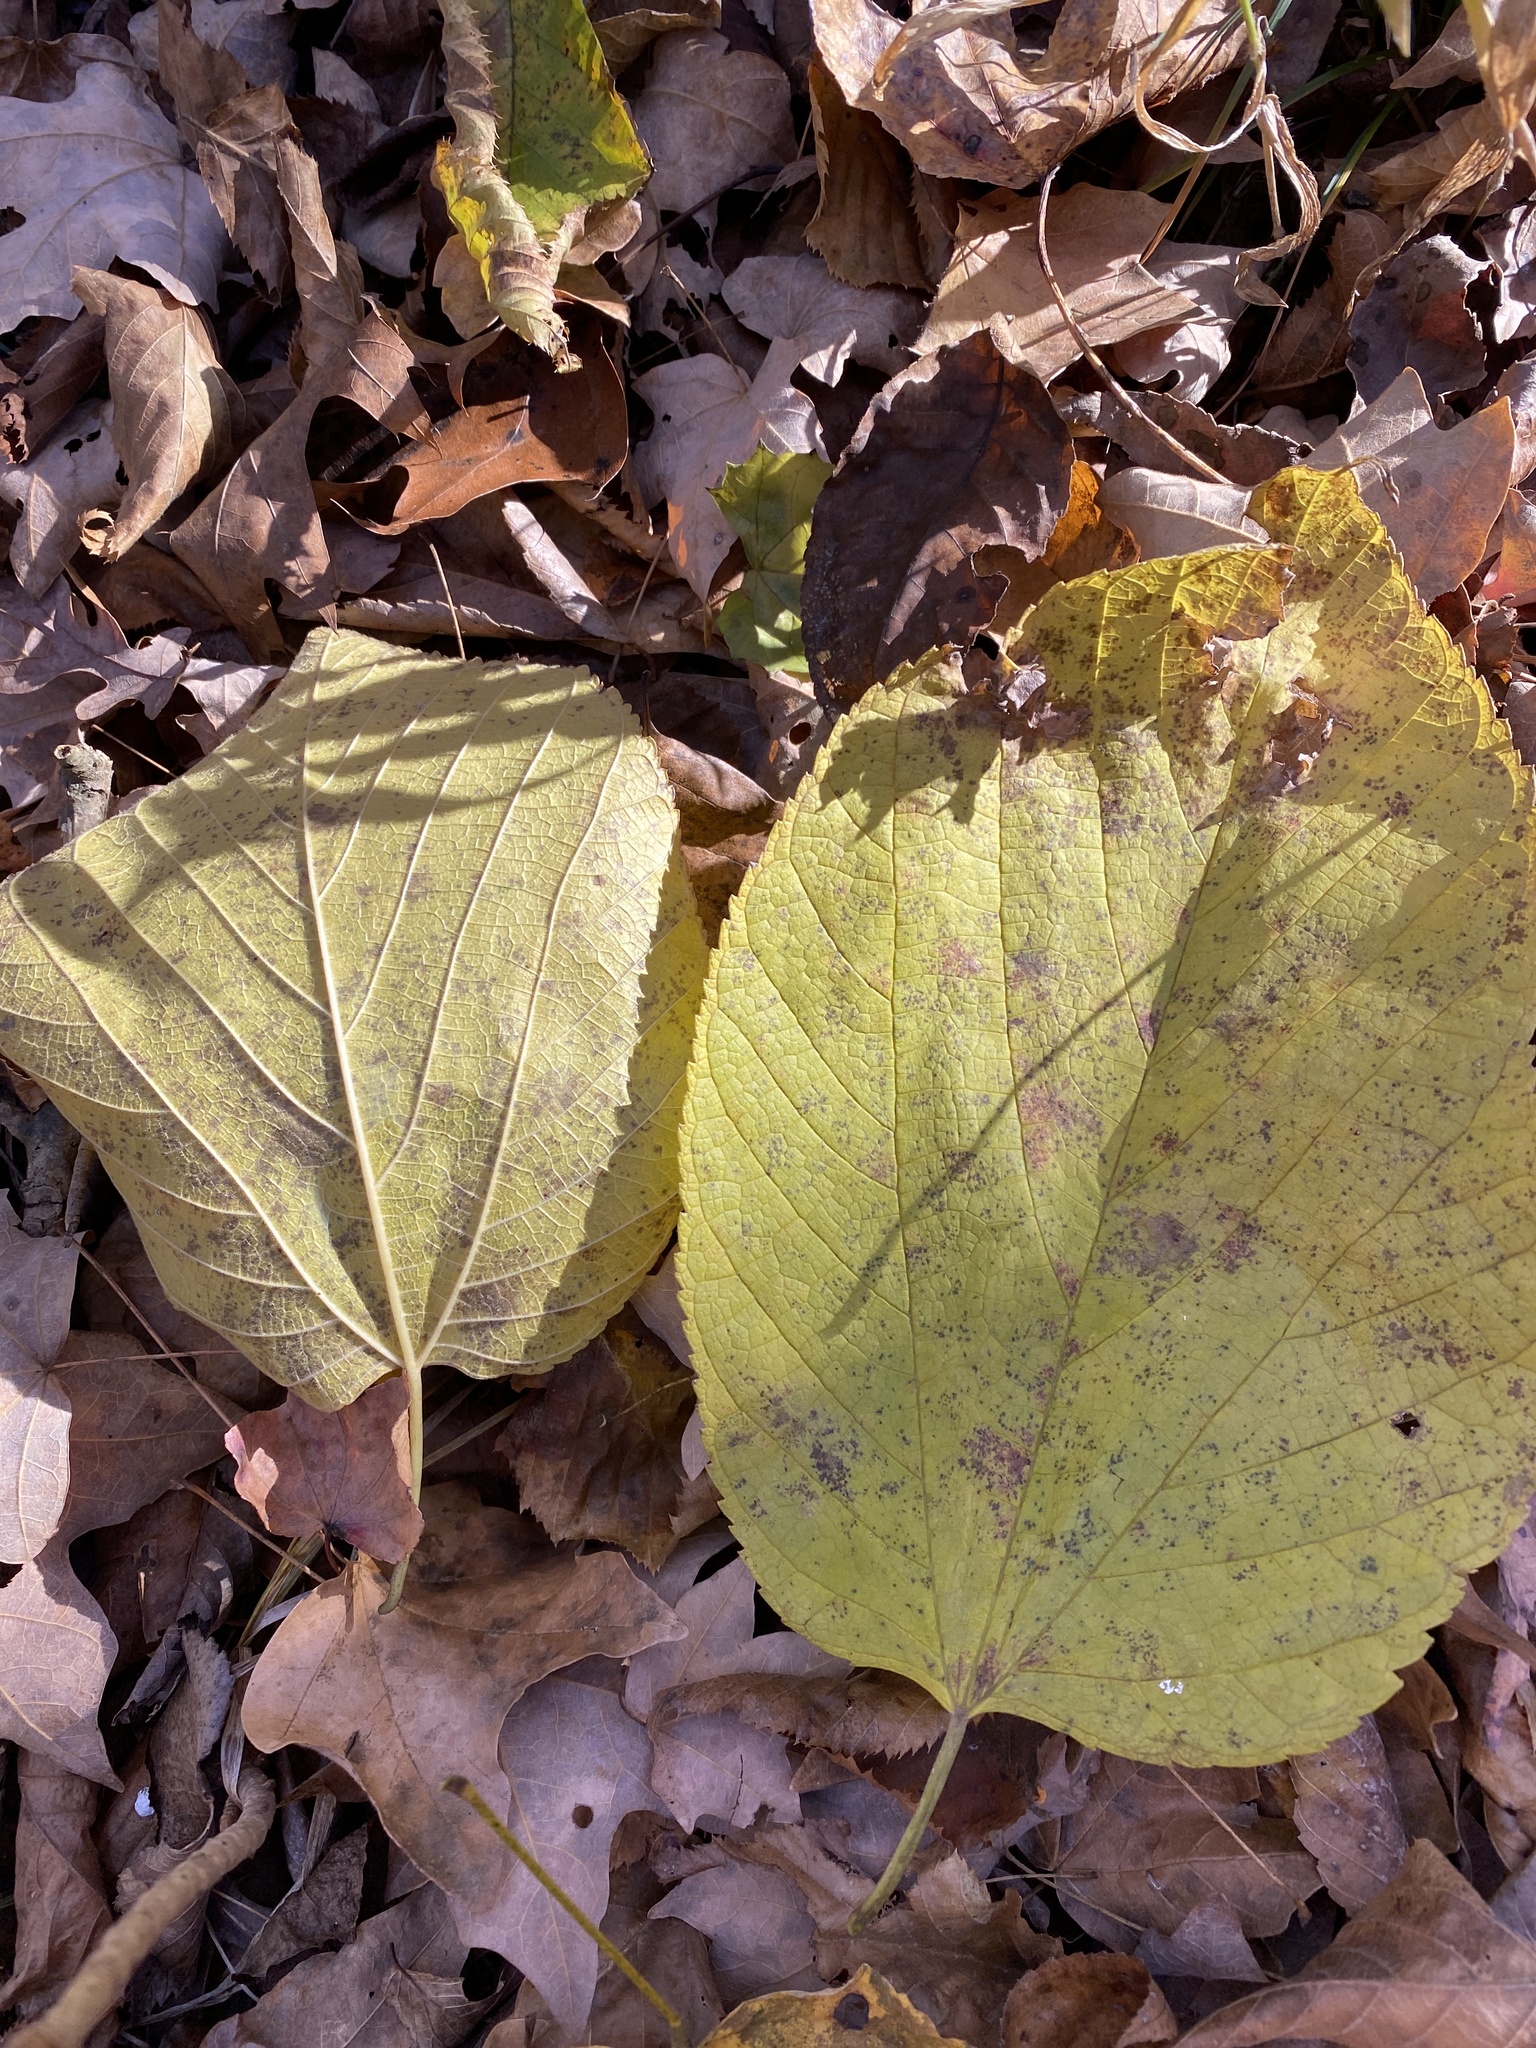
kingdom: Plantae
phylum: Tracheophyta
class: Magnoliopsida
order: Rosales
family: Moraceae
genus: Broussonetia
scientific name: Broussonetia papyrifera
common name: Paper mulberry
